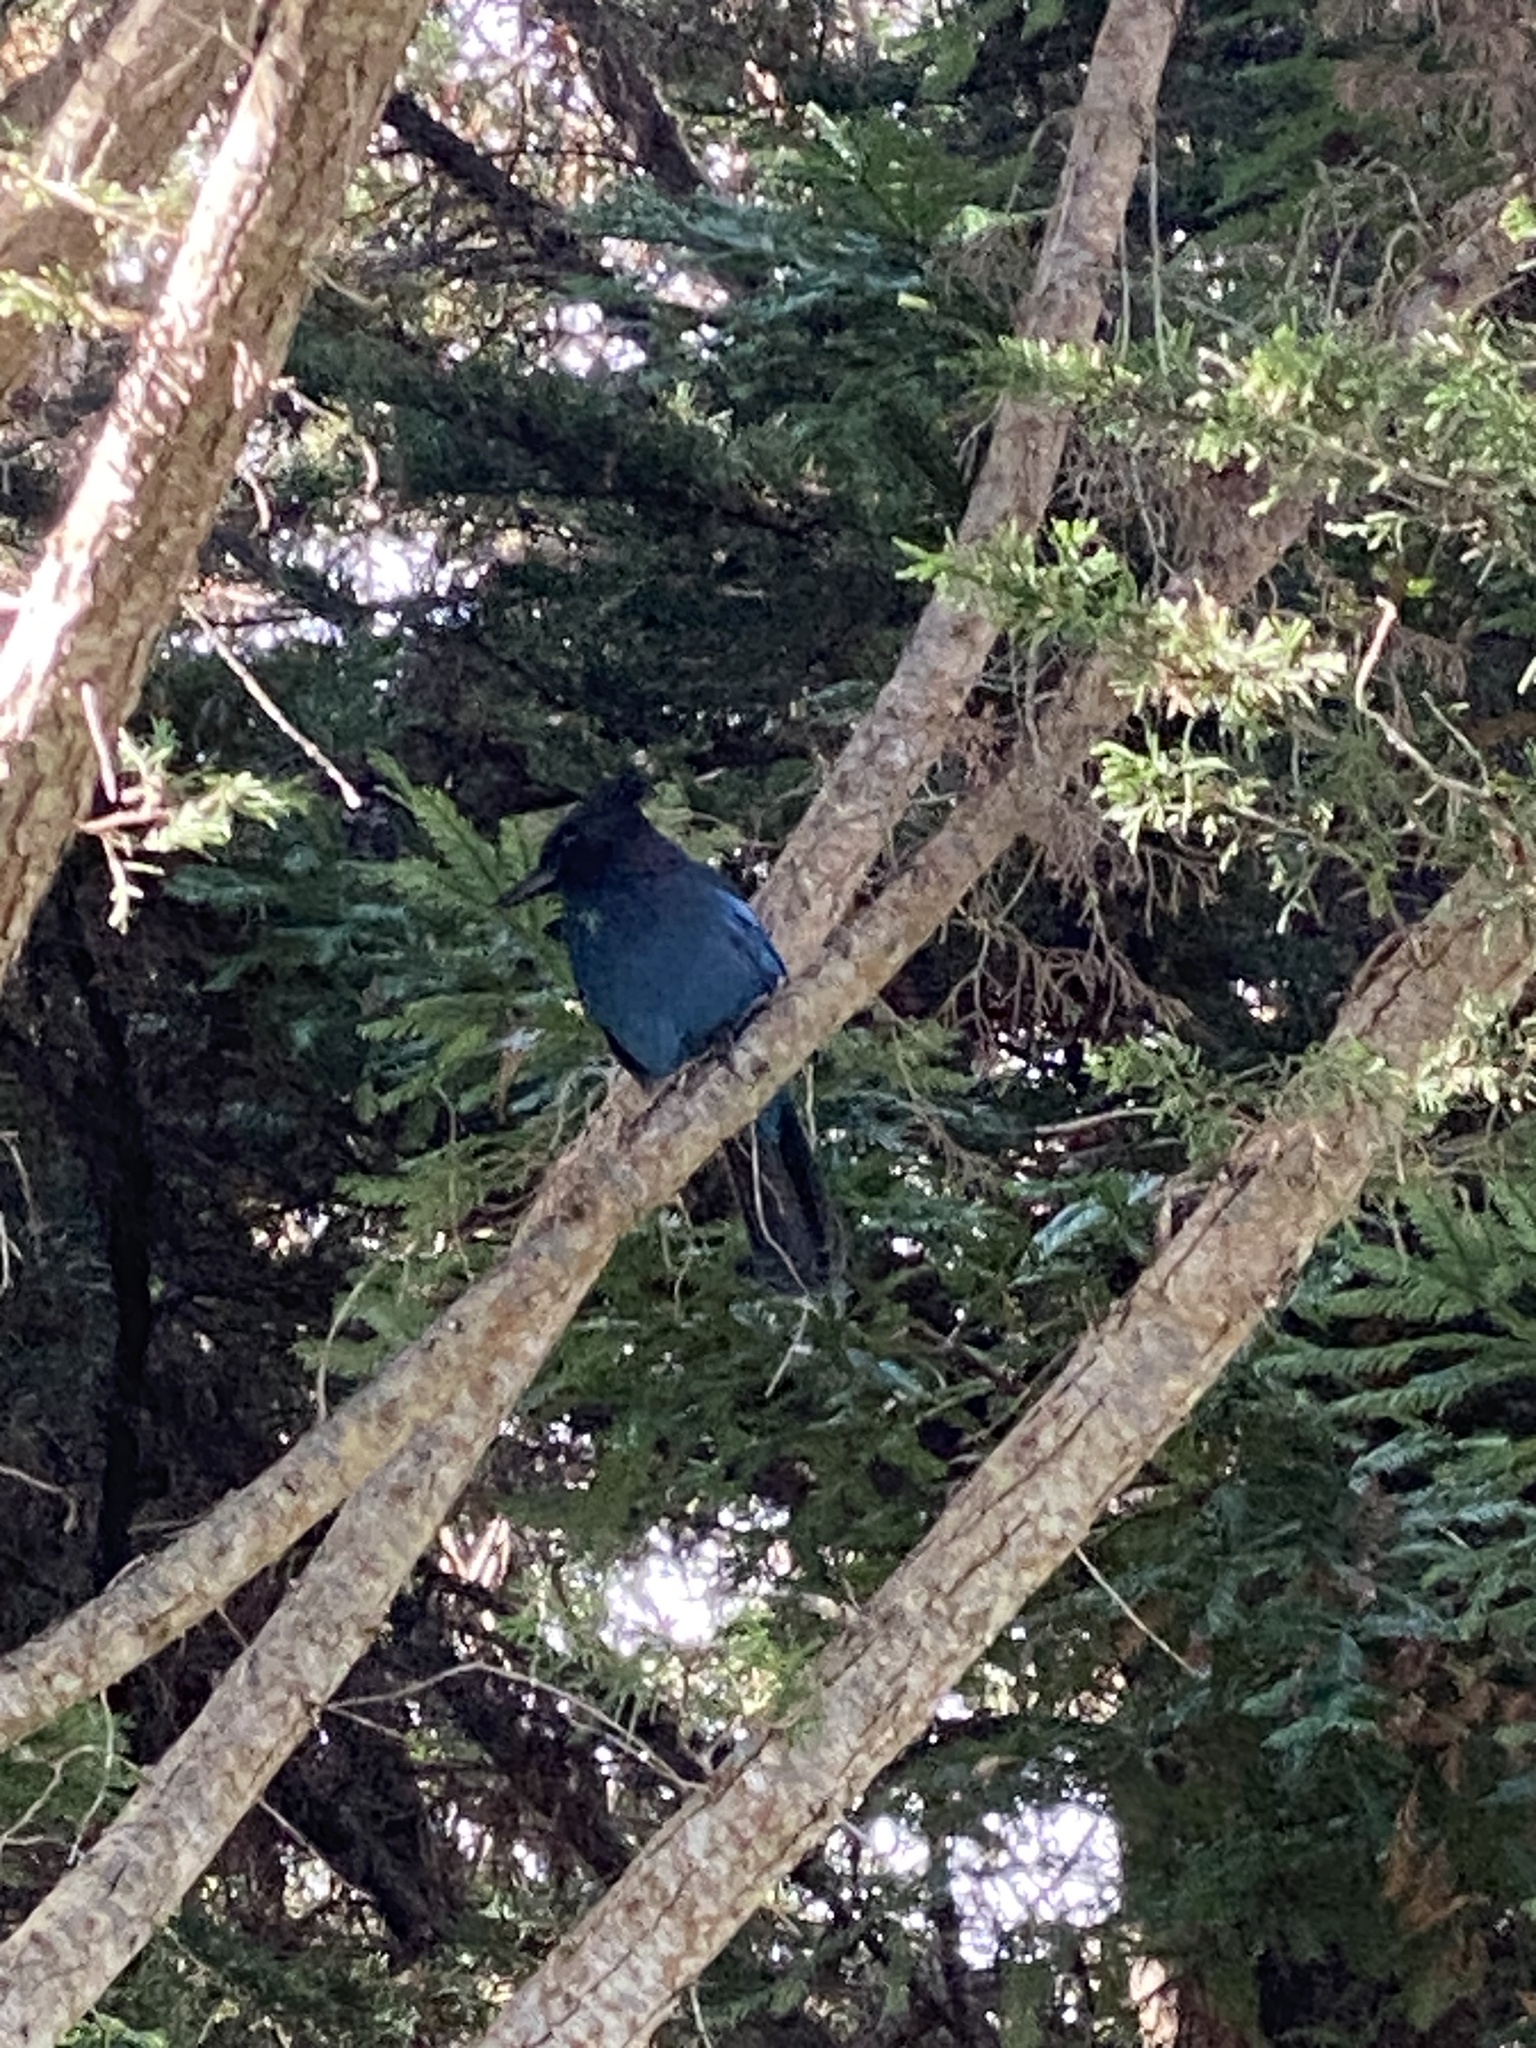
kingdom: Animalia
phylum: Chordata
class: Aves
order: Passeriformes
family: Corvidae
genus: Cyanocitta
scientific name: Cyanocitta stelleri
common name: Steller's jay
